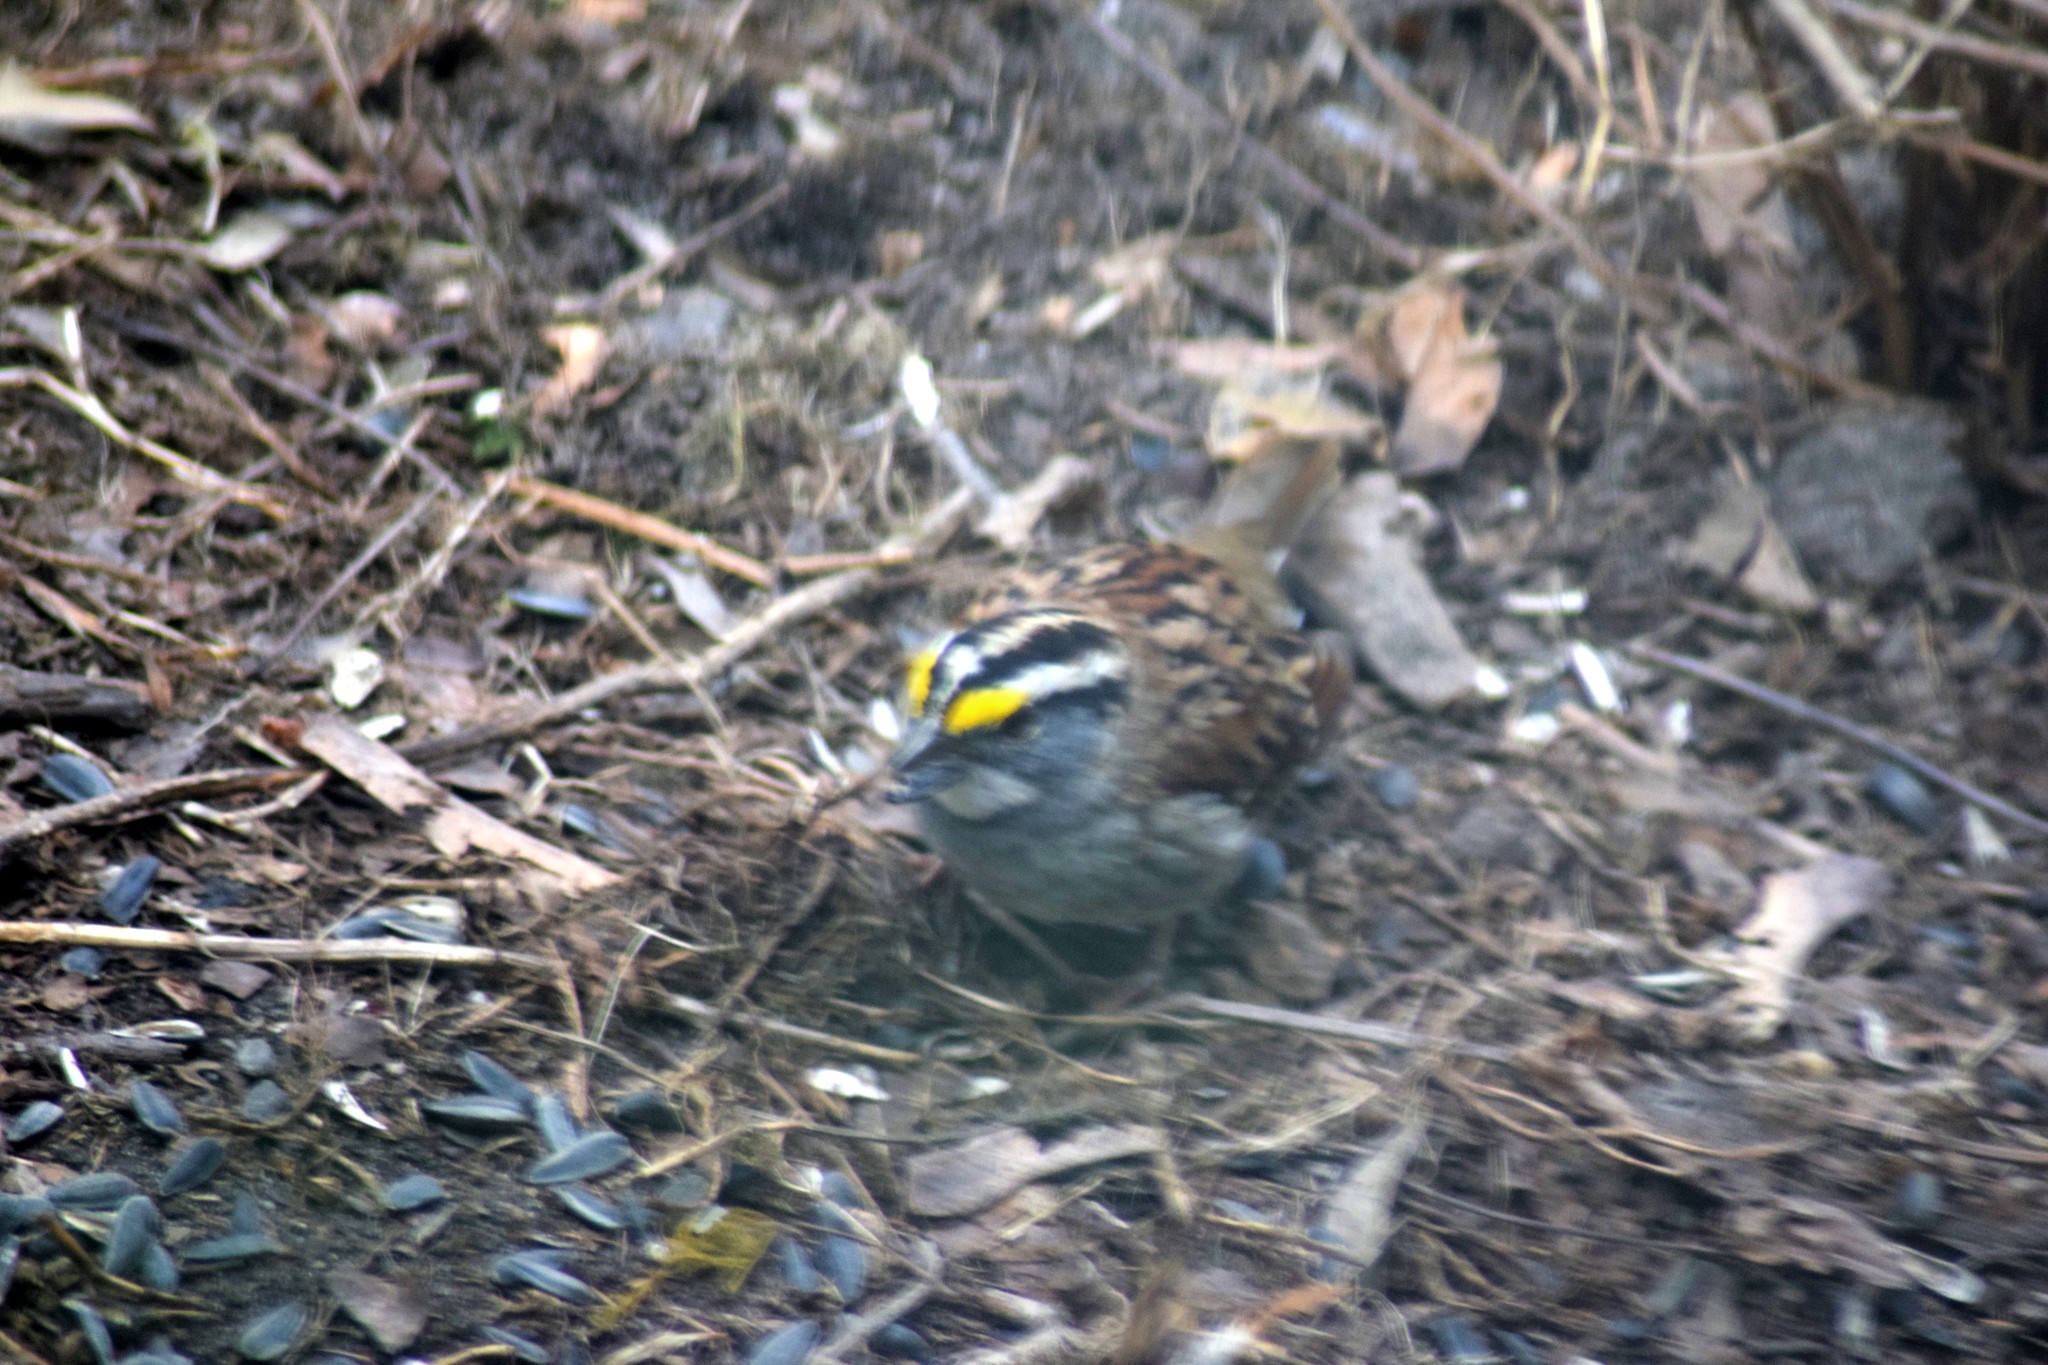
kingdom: Animalia
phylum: Chordata
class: Aves
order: Passeriformes
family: Passerellidae
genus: Zonotrichia
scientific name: Zonotrichia albicollis
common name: White-throated sparrow
